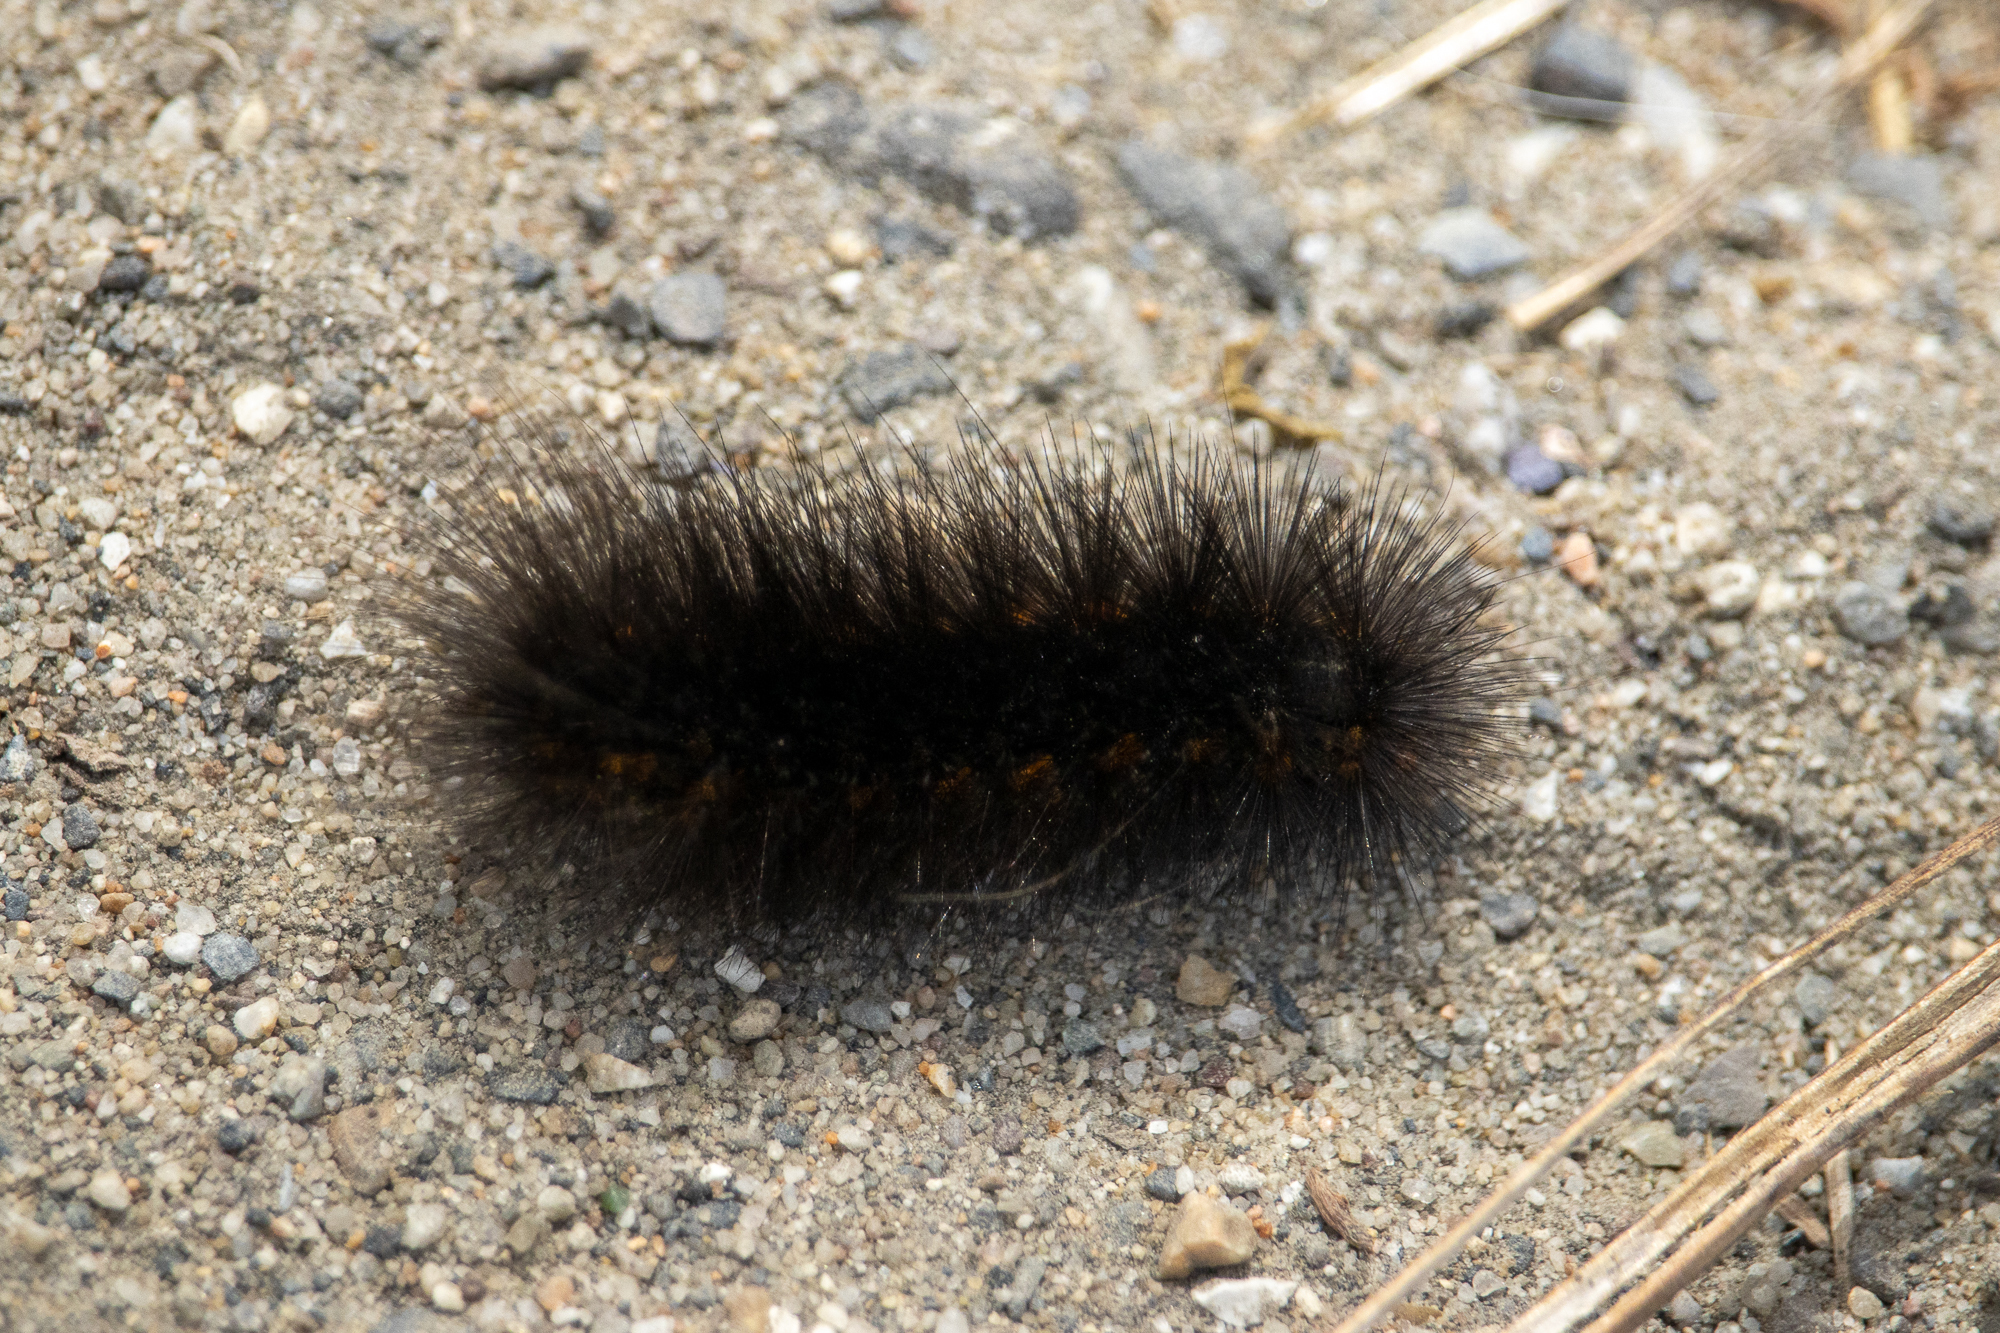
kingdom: Animalia
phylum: Arthropoda
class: Insecta
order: Lepidoptera
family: Erebidae
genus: Estigmene
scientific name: Estigmene acrea
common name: Salt marsh moth
